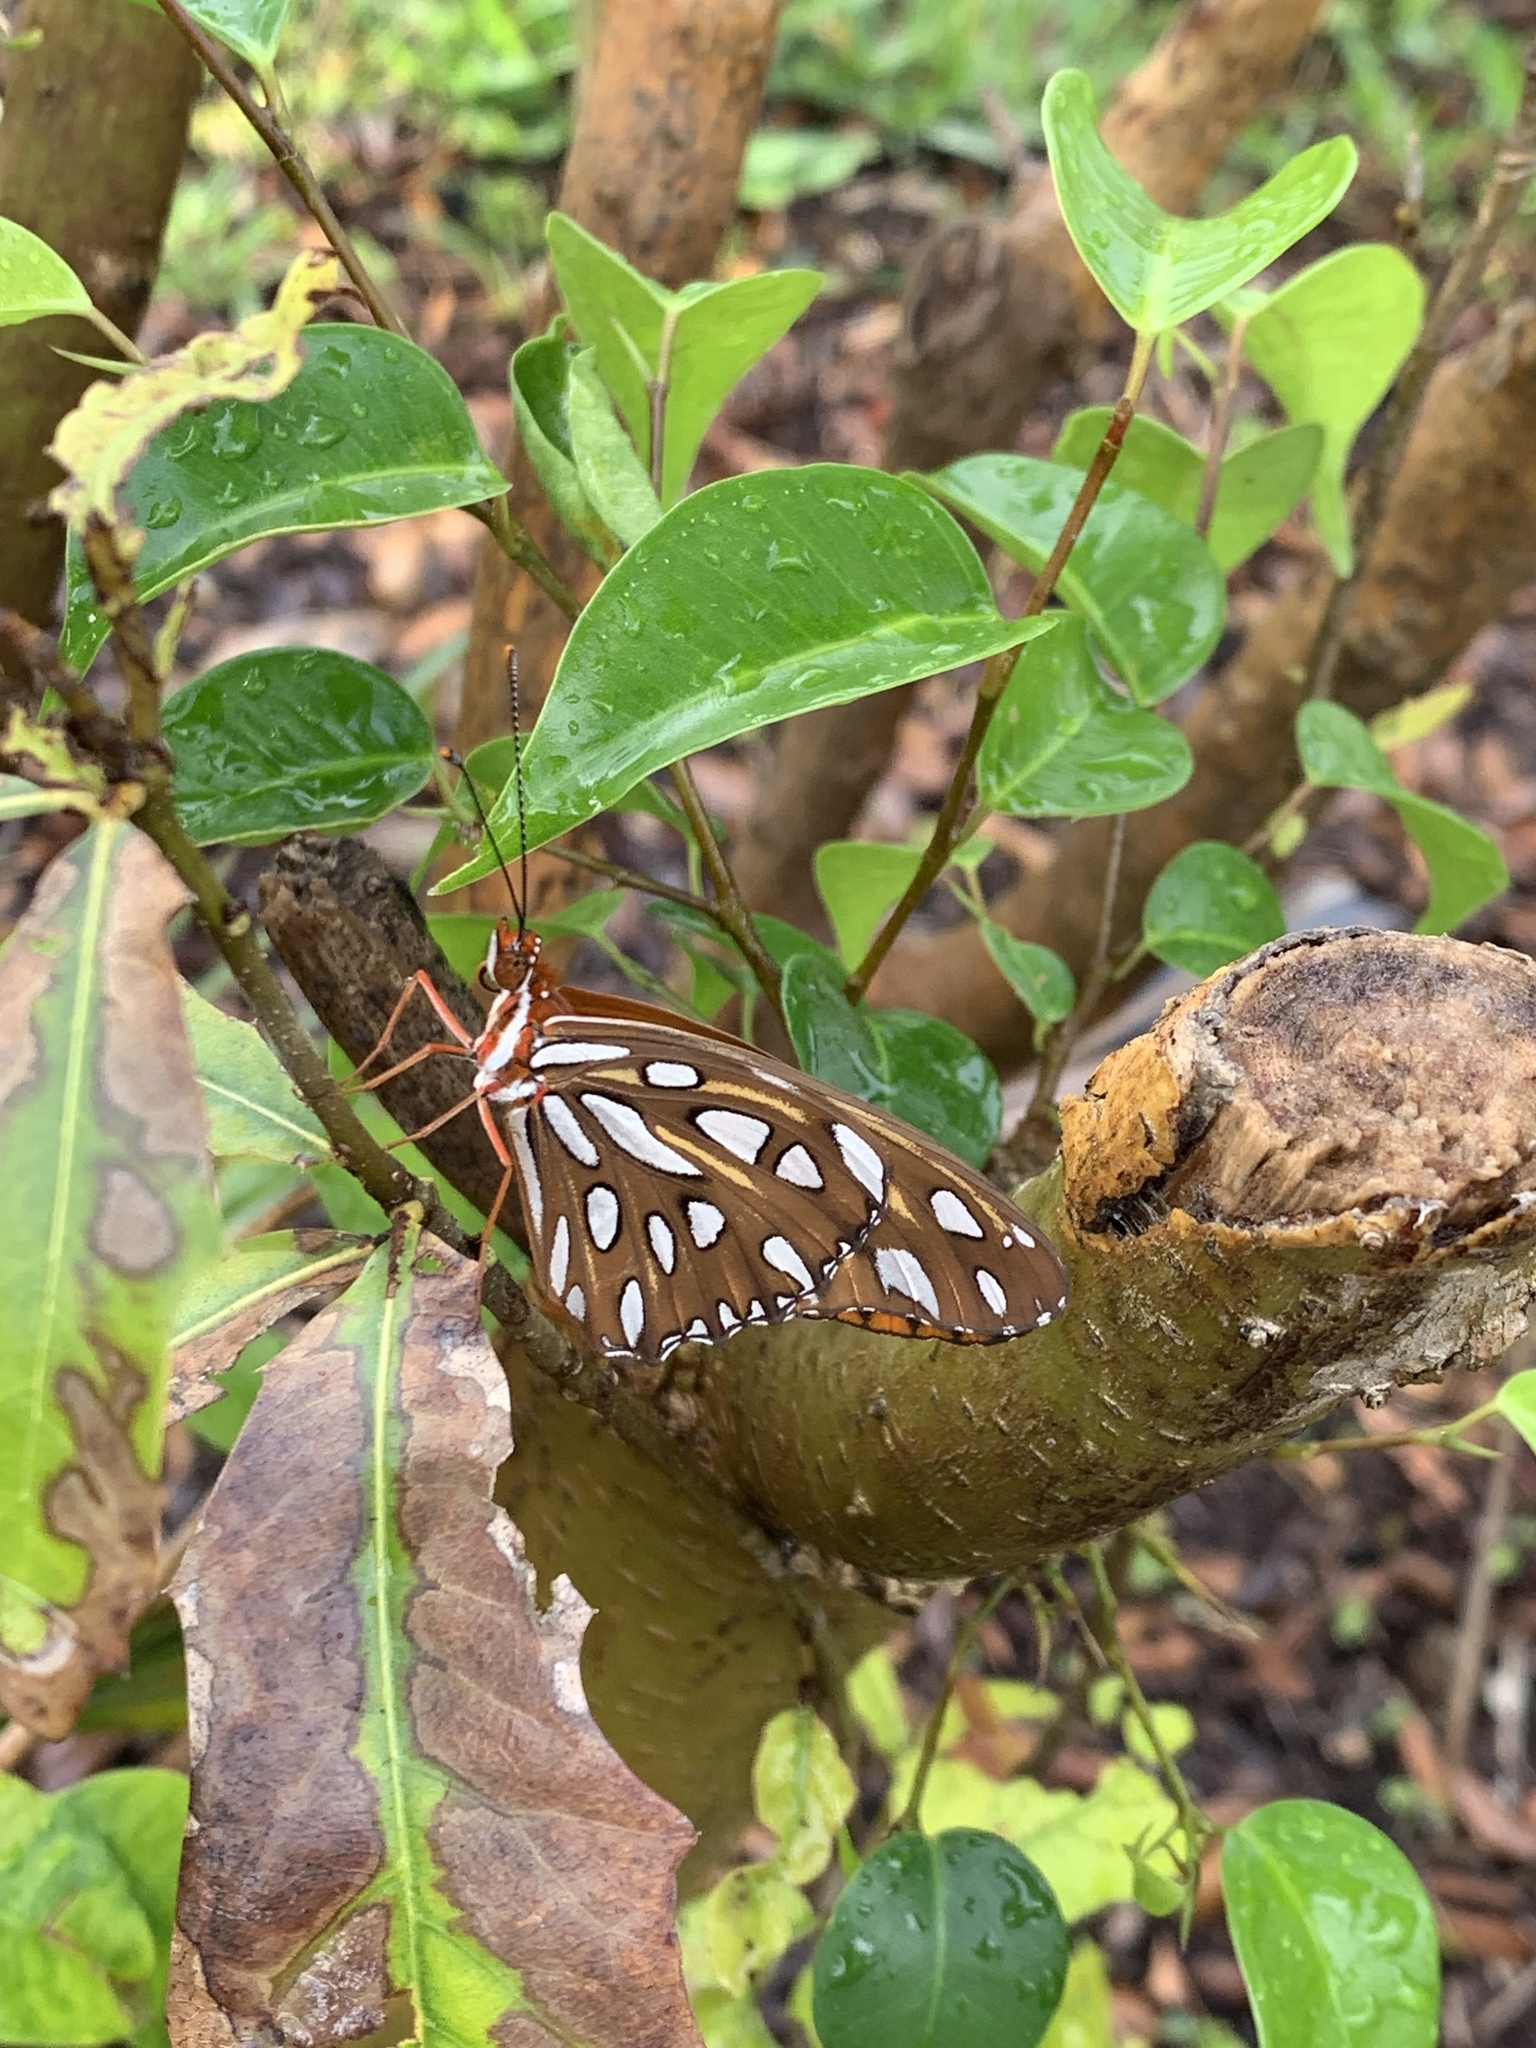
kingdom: Animalia
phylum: Arthropoda
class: Insecta
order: Lepidoptera
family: Nymphalidae
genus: Dione
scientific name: Dione vanillae
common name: Gulf fritillary
